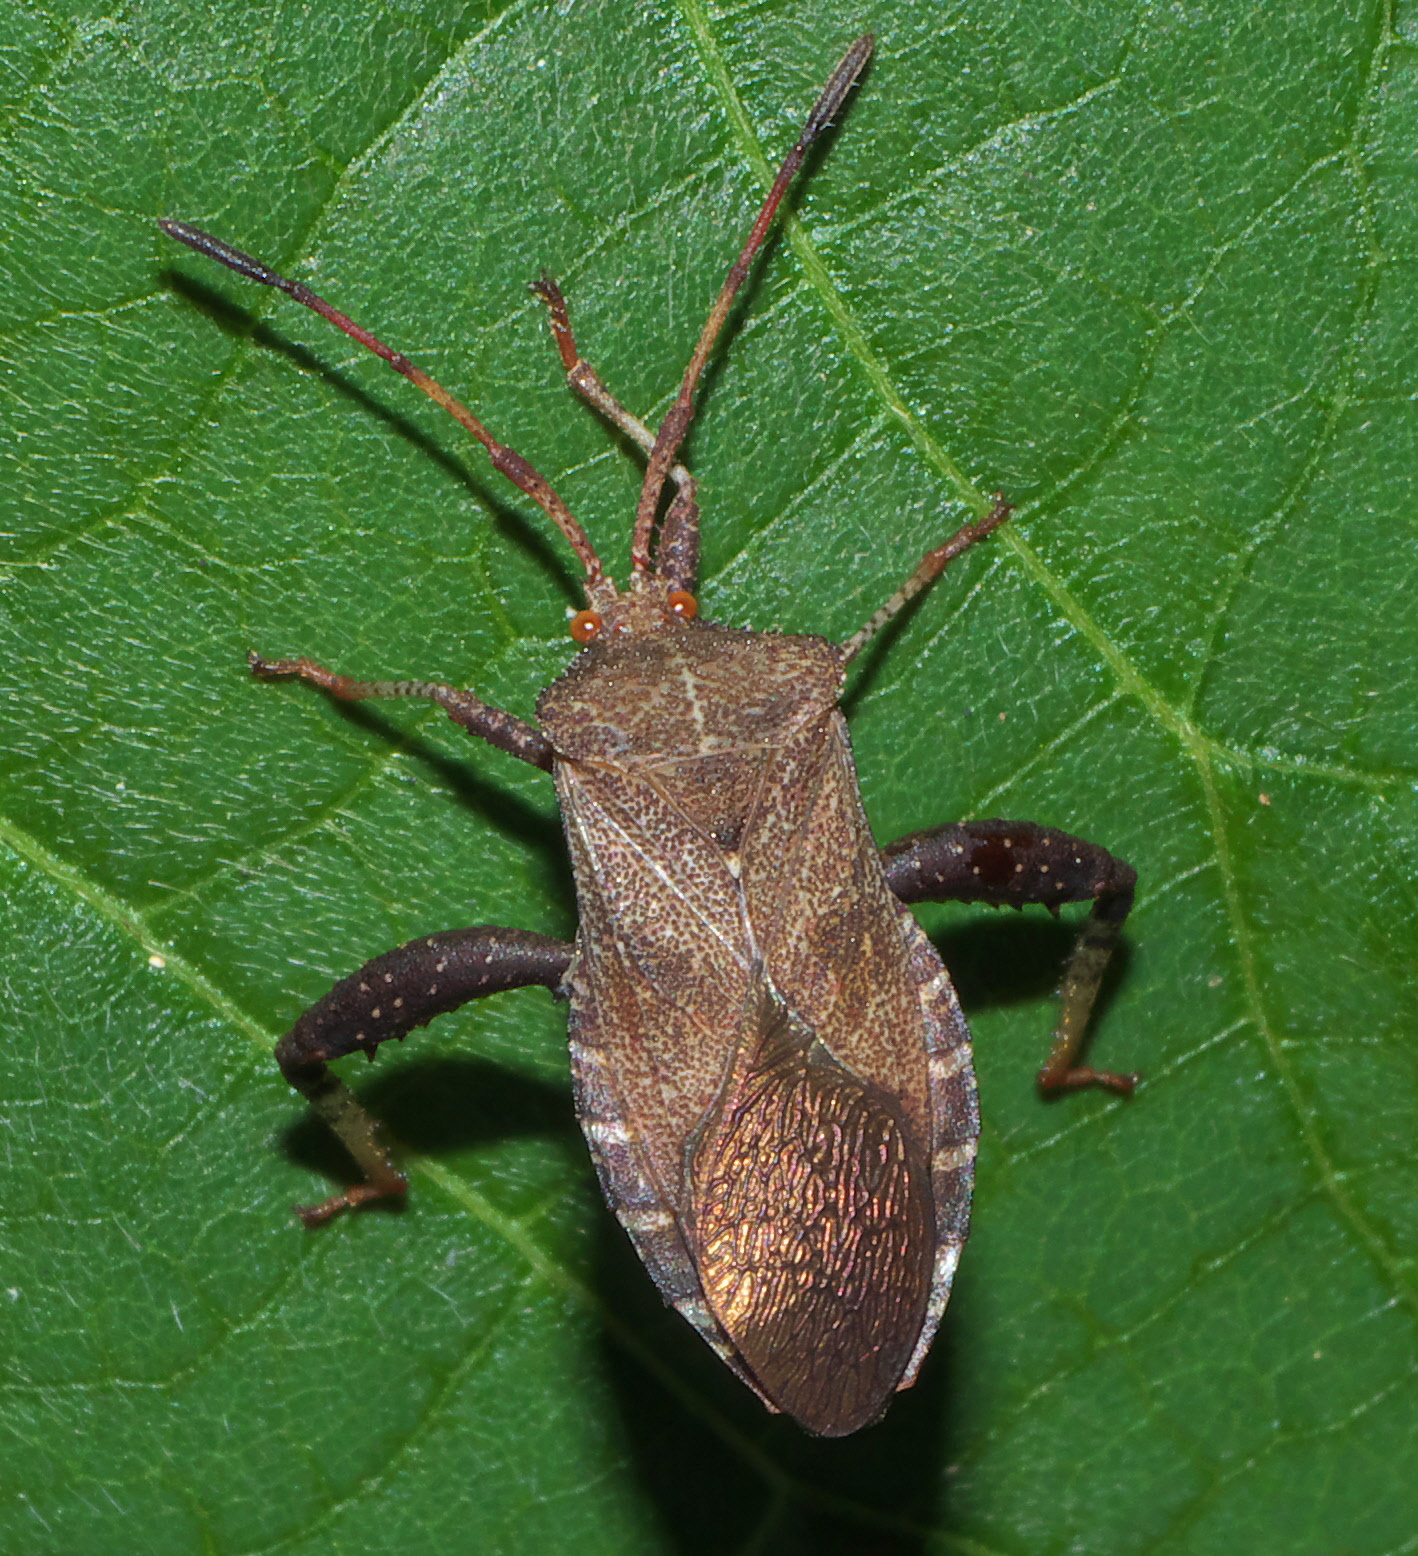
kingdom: Animalia
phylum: Arthropoda
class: Insecta
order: Hemiptera
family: Coreidae
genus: Euthochtha
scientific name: Euthochtha galeator
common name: Helmeted squash bug
